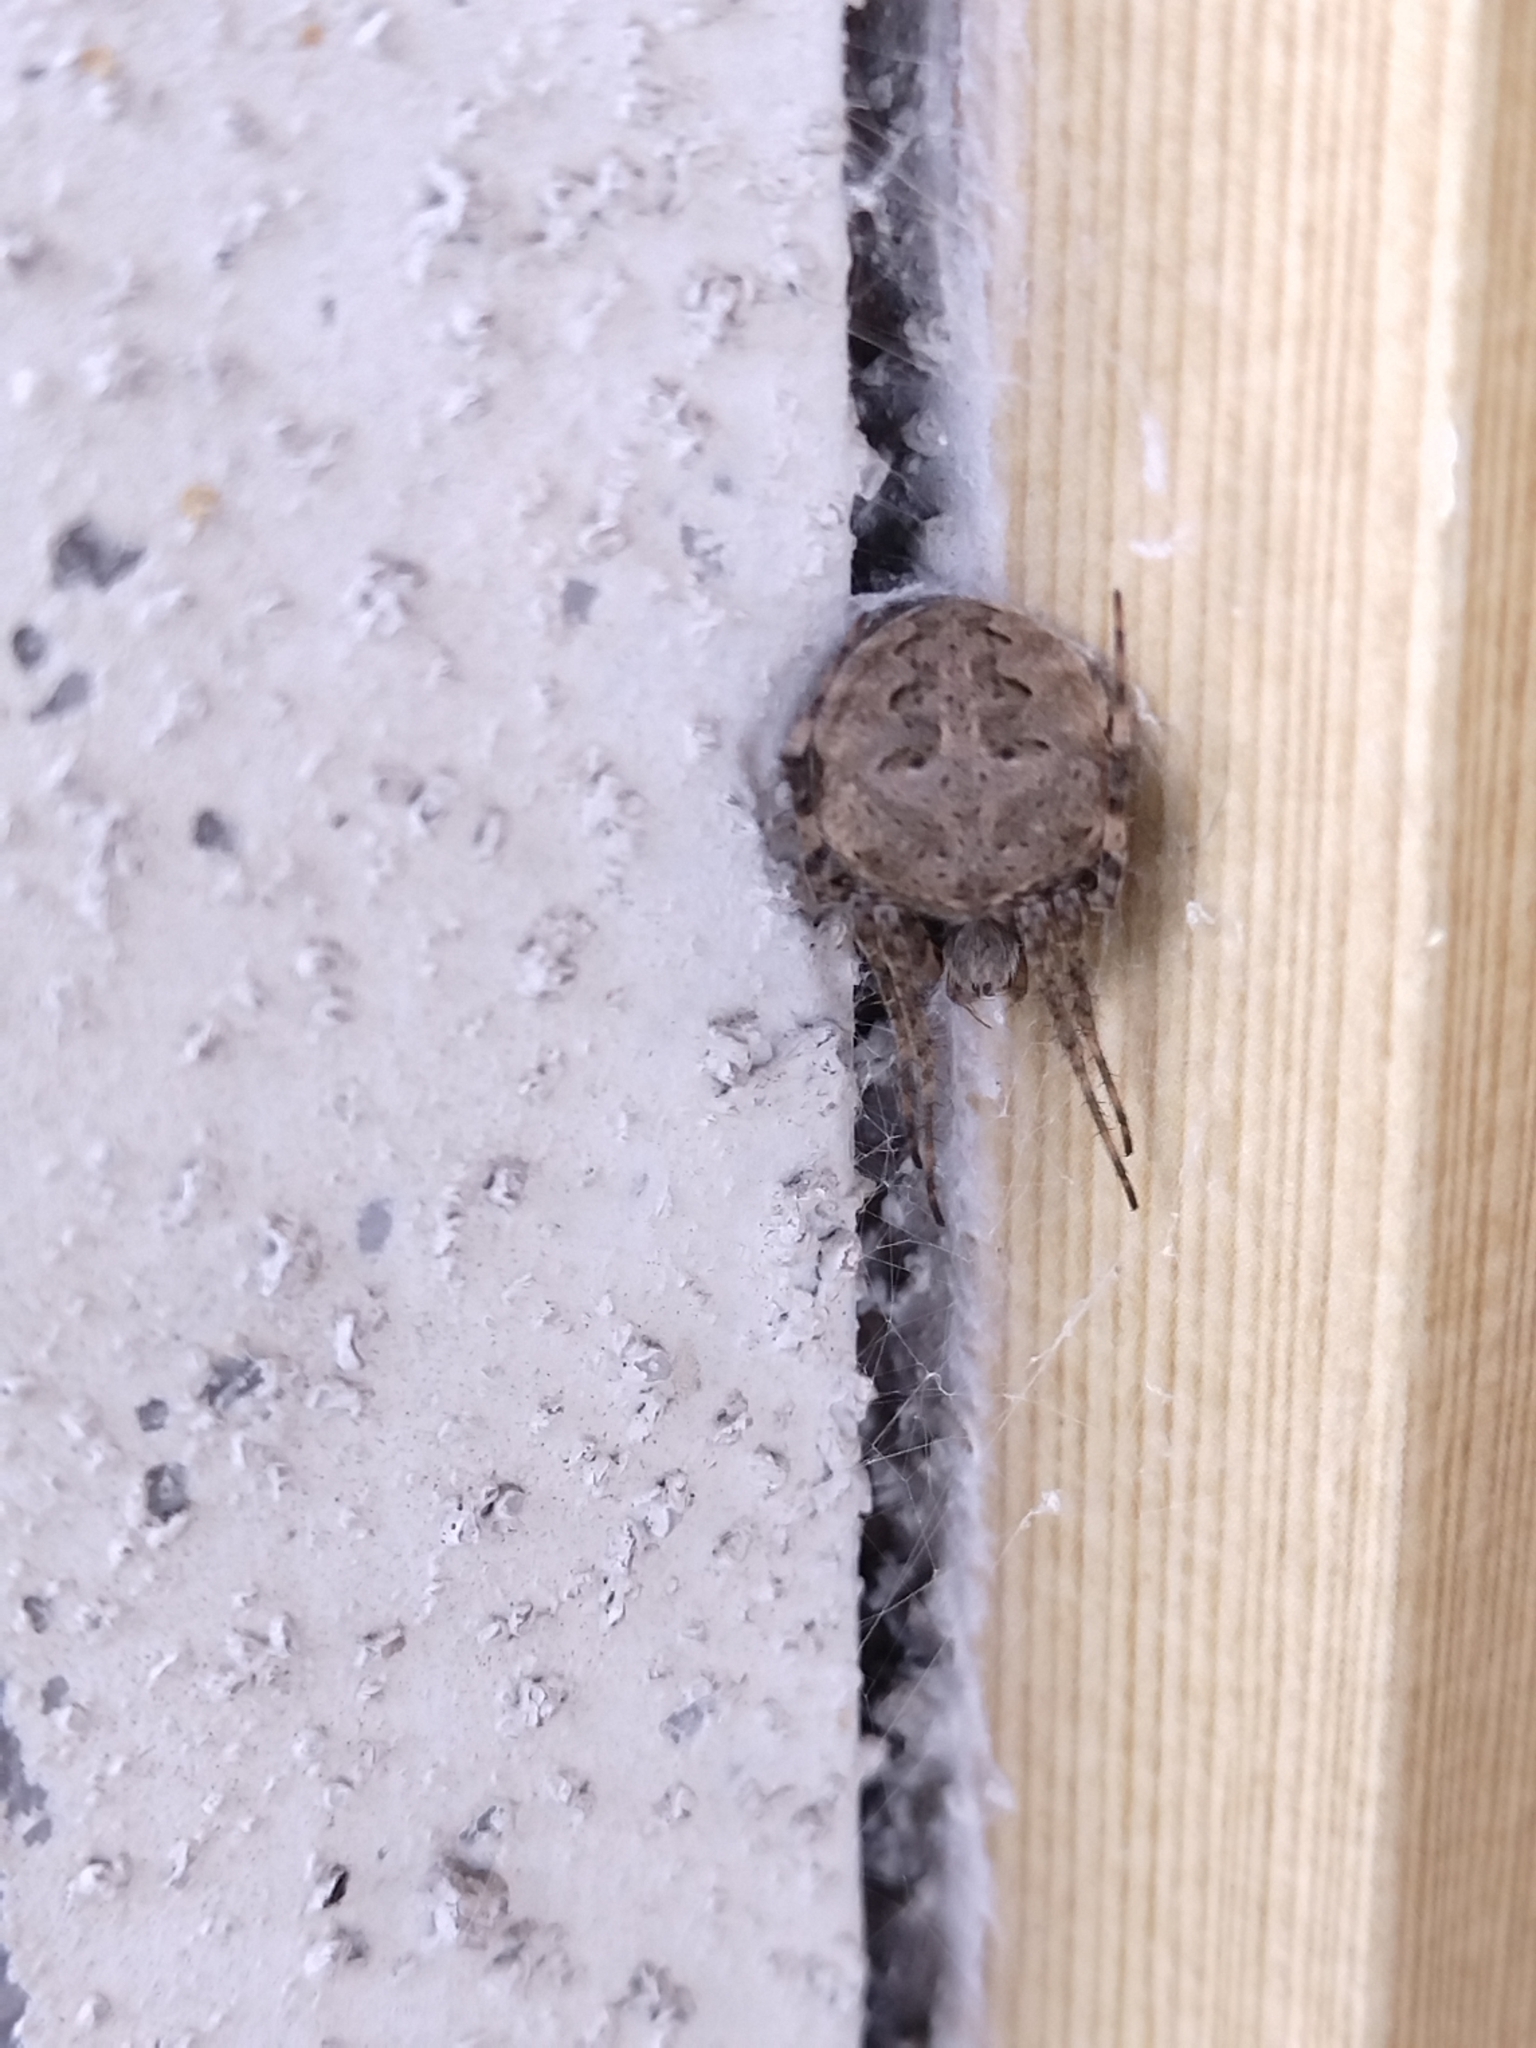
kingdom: Animalia
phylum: Arthropoda
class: Arachnida
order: Araneae
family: Araneidae
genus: Neoscona
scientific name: Neoscona nautica
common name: Orb weavers
